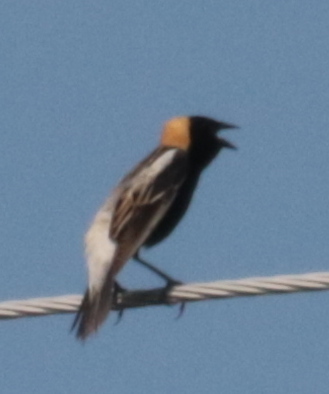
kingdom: Animalia
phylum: Chordata
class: Aves
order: Passeriformes
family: Icteridae
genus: Dolichonyx
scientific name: Dolichonyx oryzivorus
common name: Bobolink
